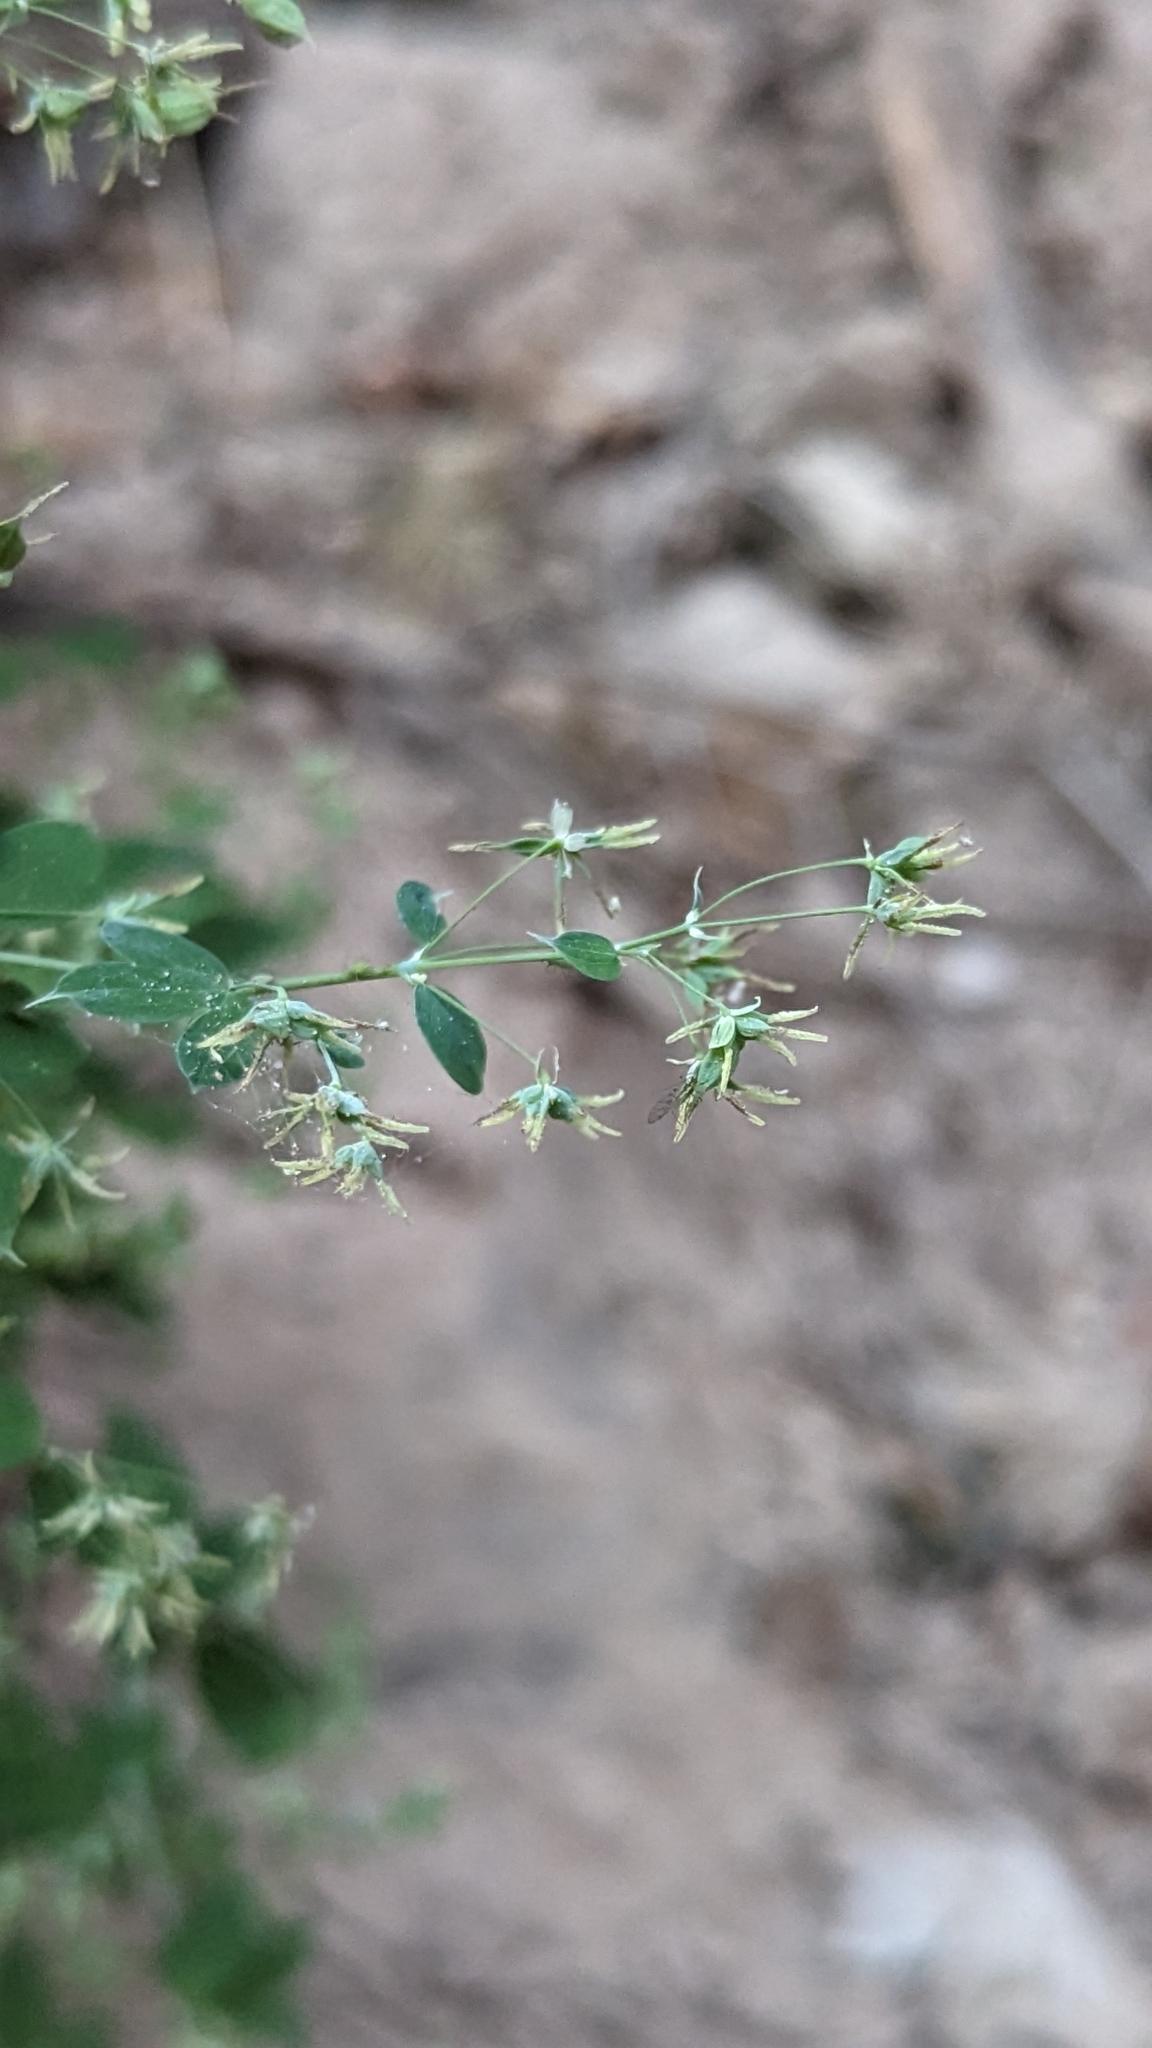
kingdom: Plantae
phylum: Tracheophyta
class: Magnoliopsida
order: Ranunculales
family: Ranunculaceae
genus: Thalictrum
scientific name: Thalictrum fendleri
